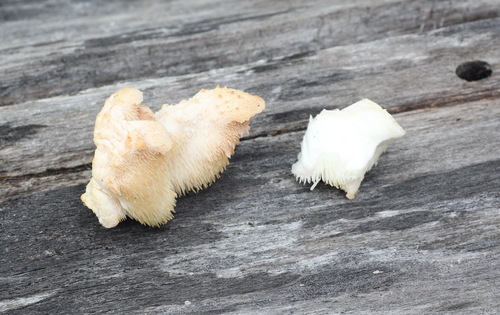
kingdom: Fungi
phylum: Basidiomycota
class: Agaricomycetes
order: Russulales
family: Hericiaceae
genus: Hericium
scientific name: Hericium cirrhatum
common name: Tiered tooth
